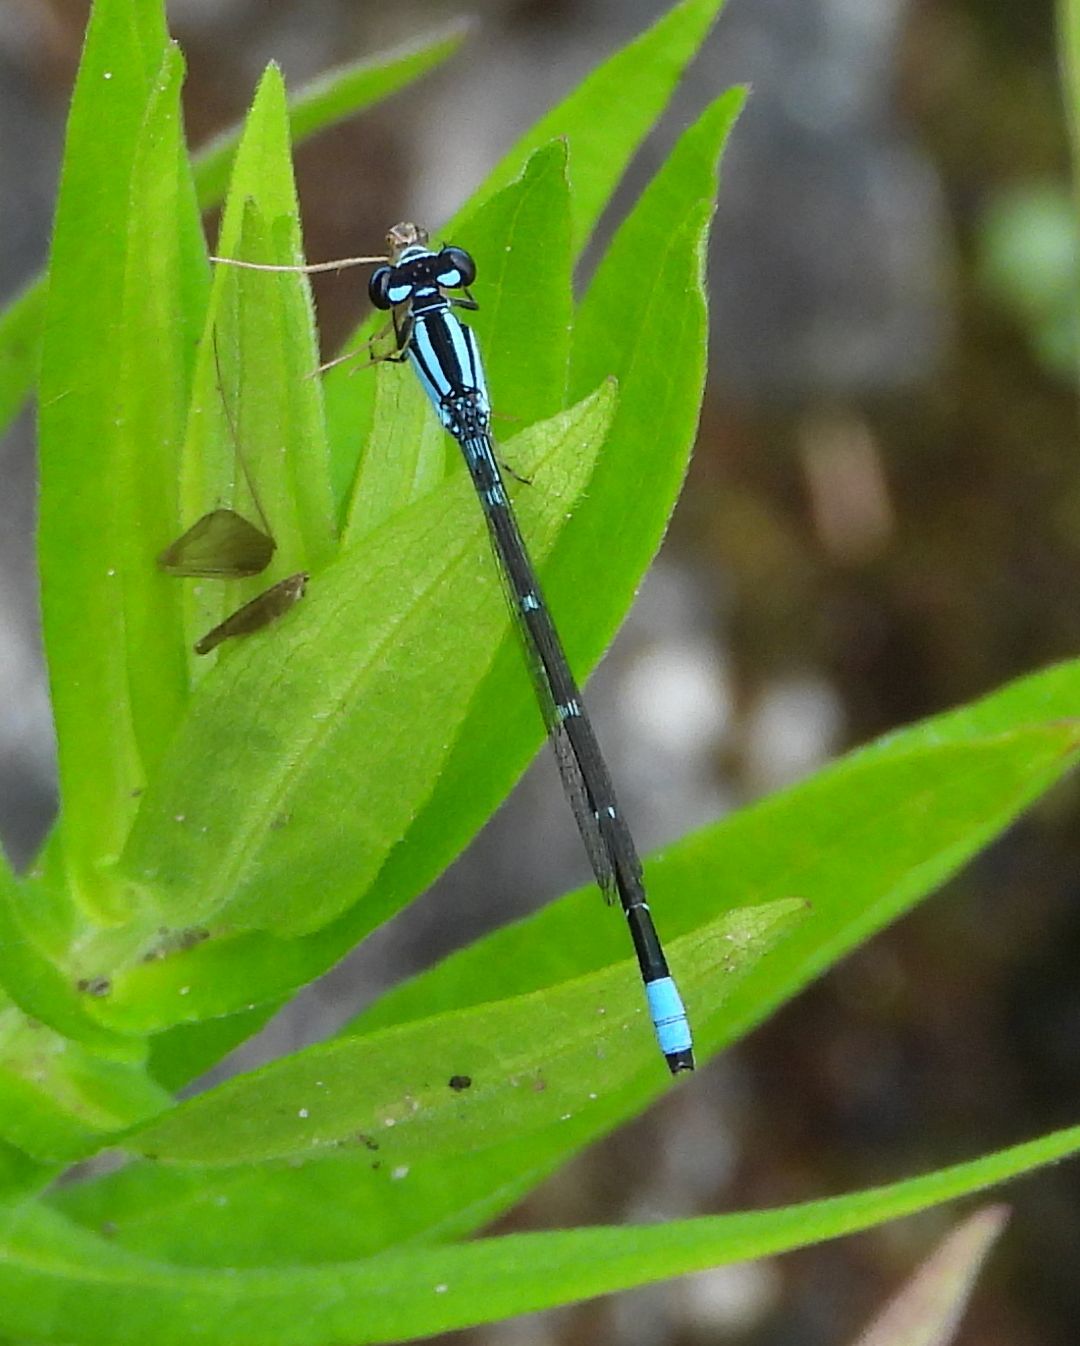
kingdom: Animalia
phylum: Arthropoda
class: Insecta
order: Odonata
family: Coenagrionidae
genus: Enallagma
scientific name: Enallagma geminatum
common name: Skimming bluet
